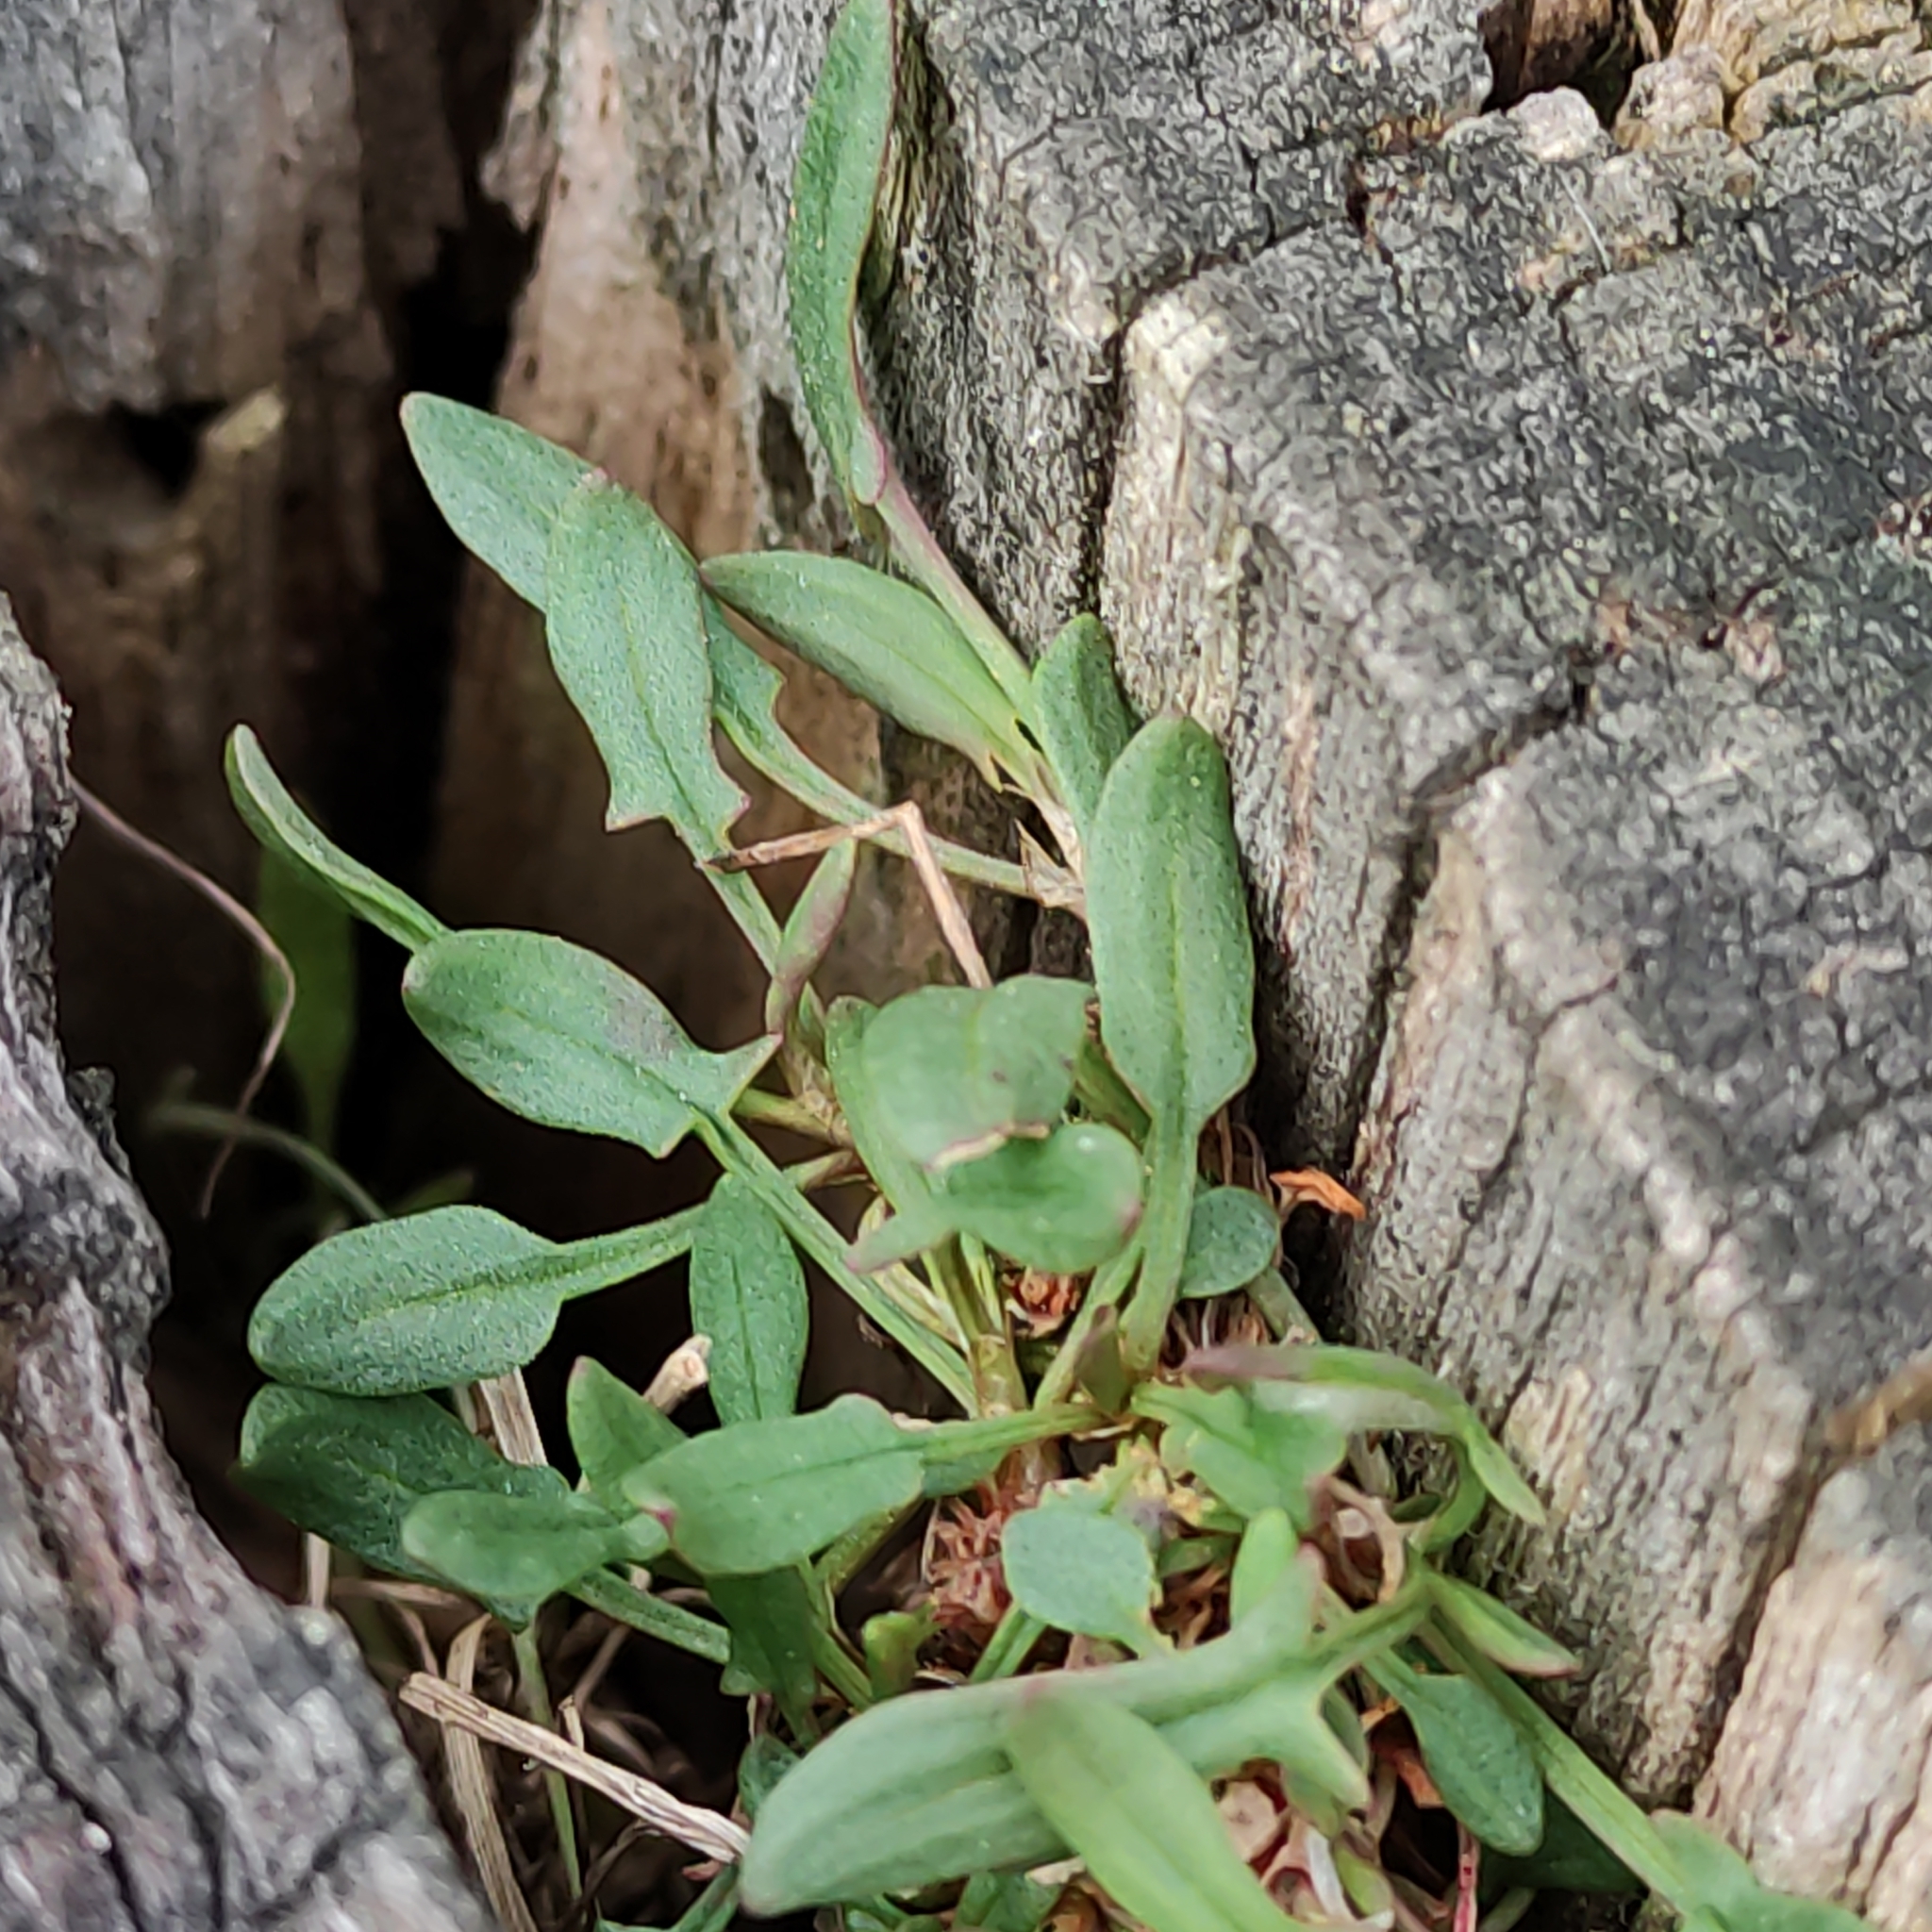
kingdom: Plantae
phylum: Tracheophyta
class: Magnoliopsida
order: Caryophyllales
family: Polygonaceae
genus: Rumex
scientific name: Rumex acetosella
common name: Common sheep sorrel
